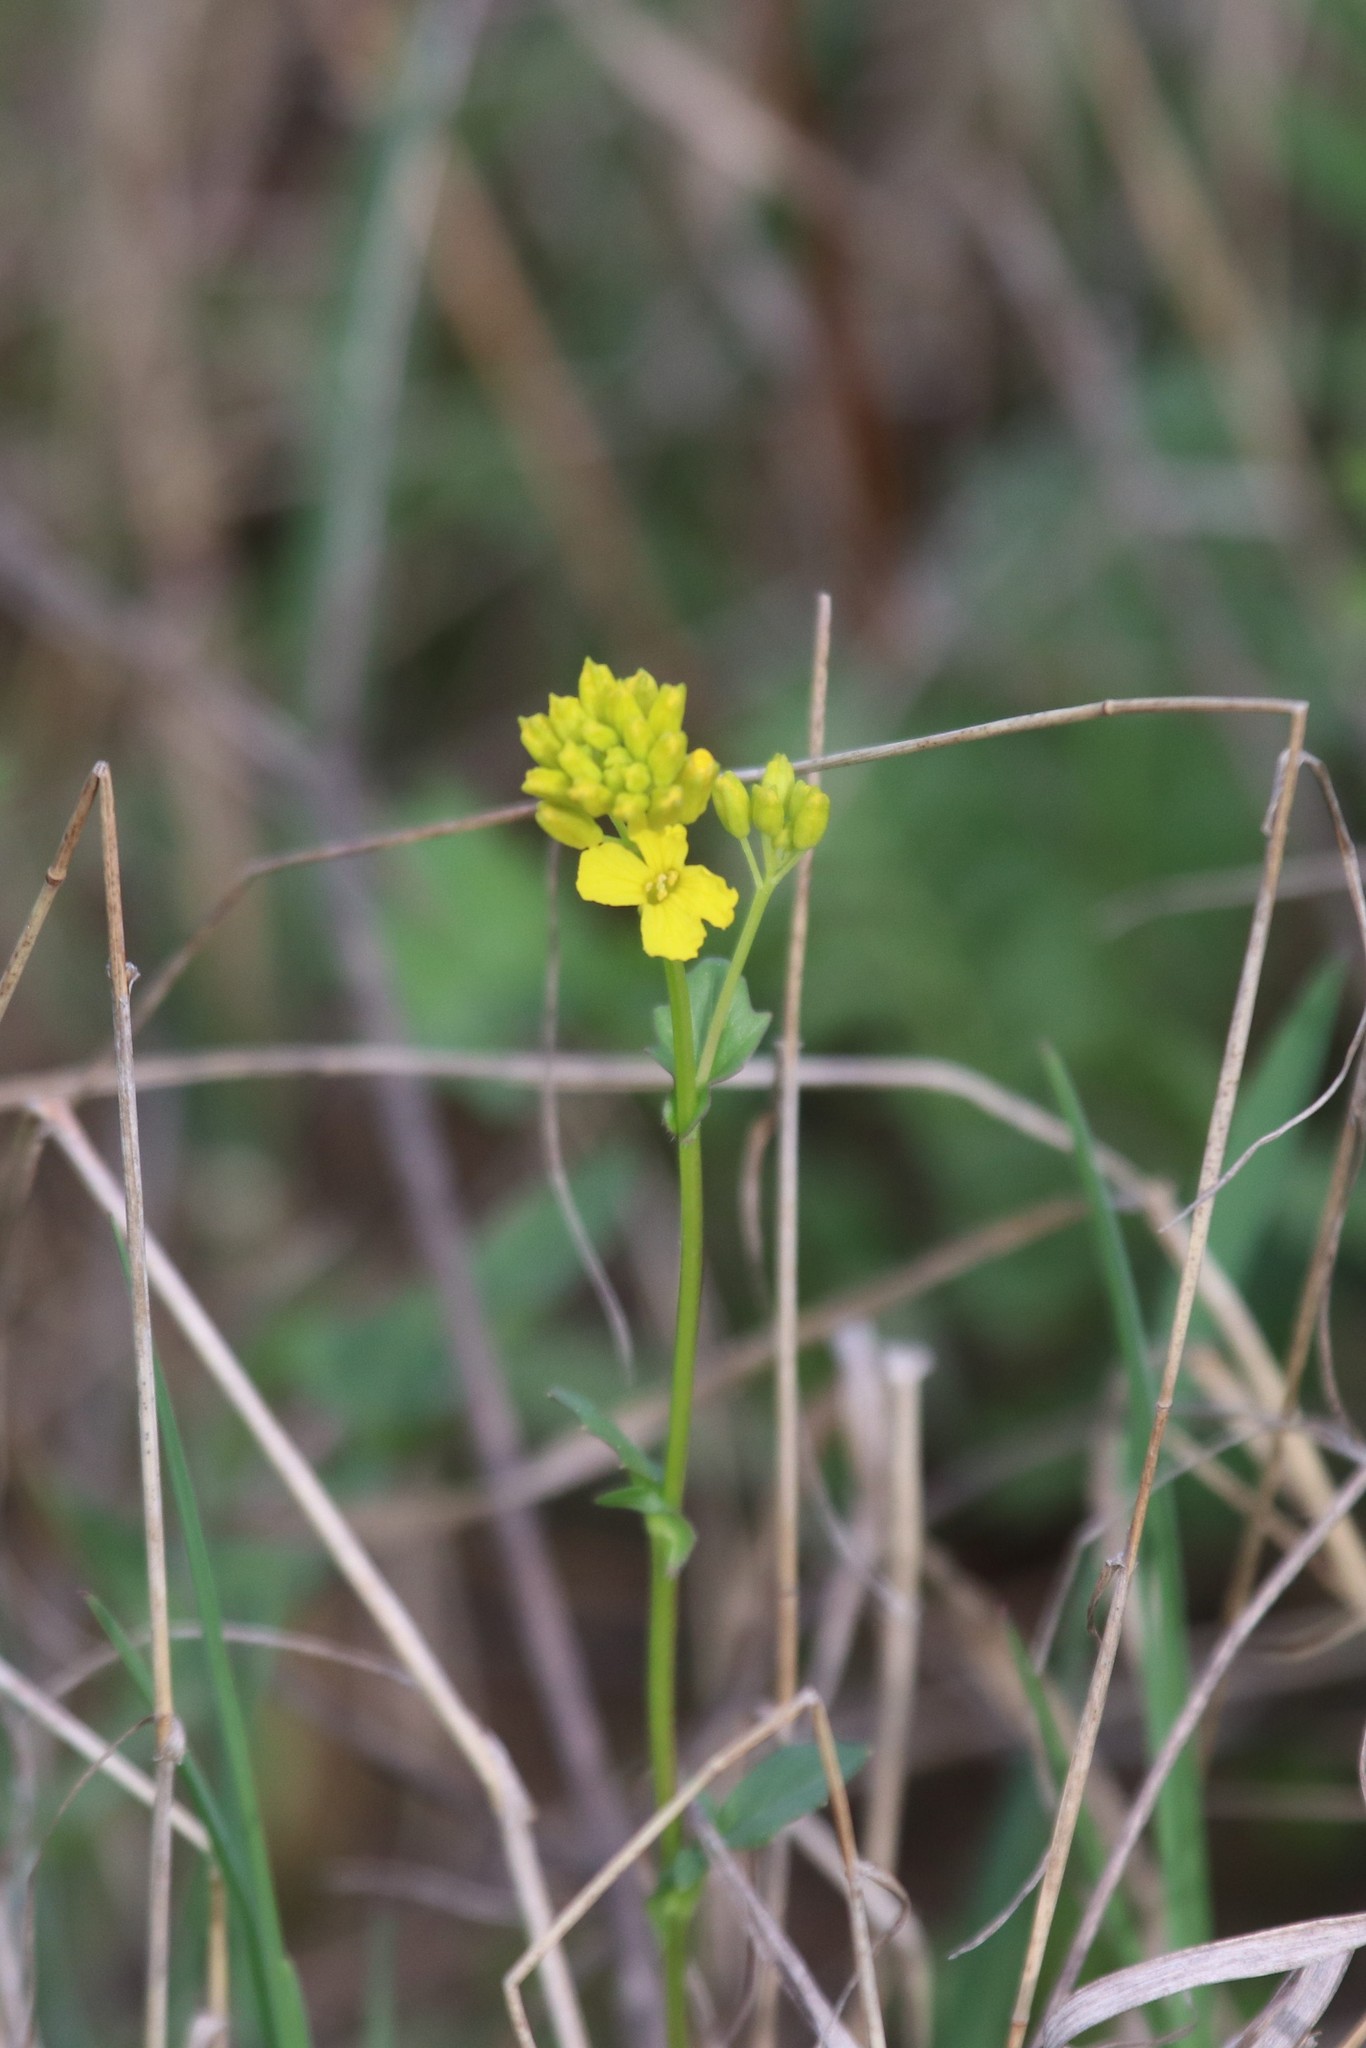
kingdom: Plantae
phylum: Tracheophyta
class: Magnoliopsida
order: Brassicales
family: Brassicaceae
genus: Barbarea
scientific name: Barbarea vulgaris
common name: Cressy-greens
